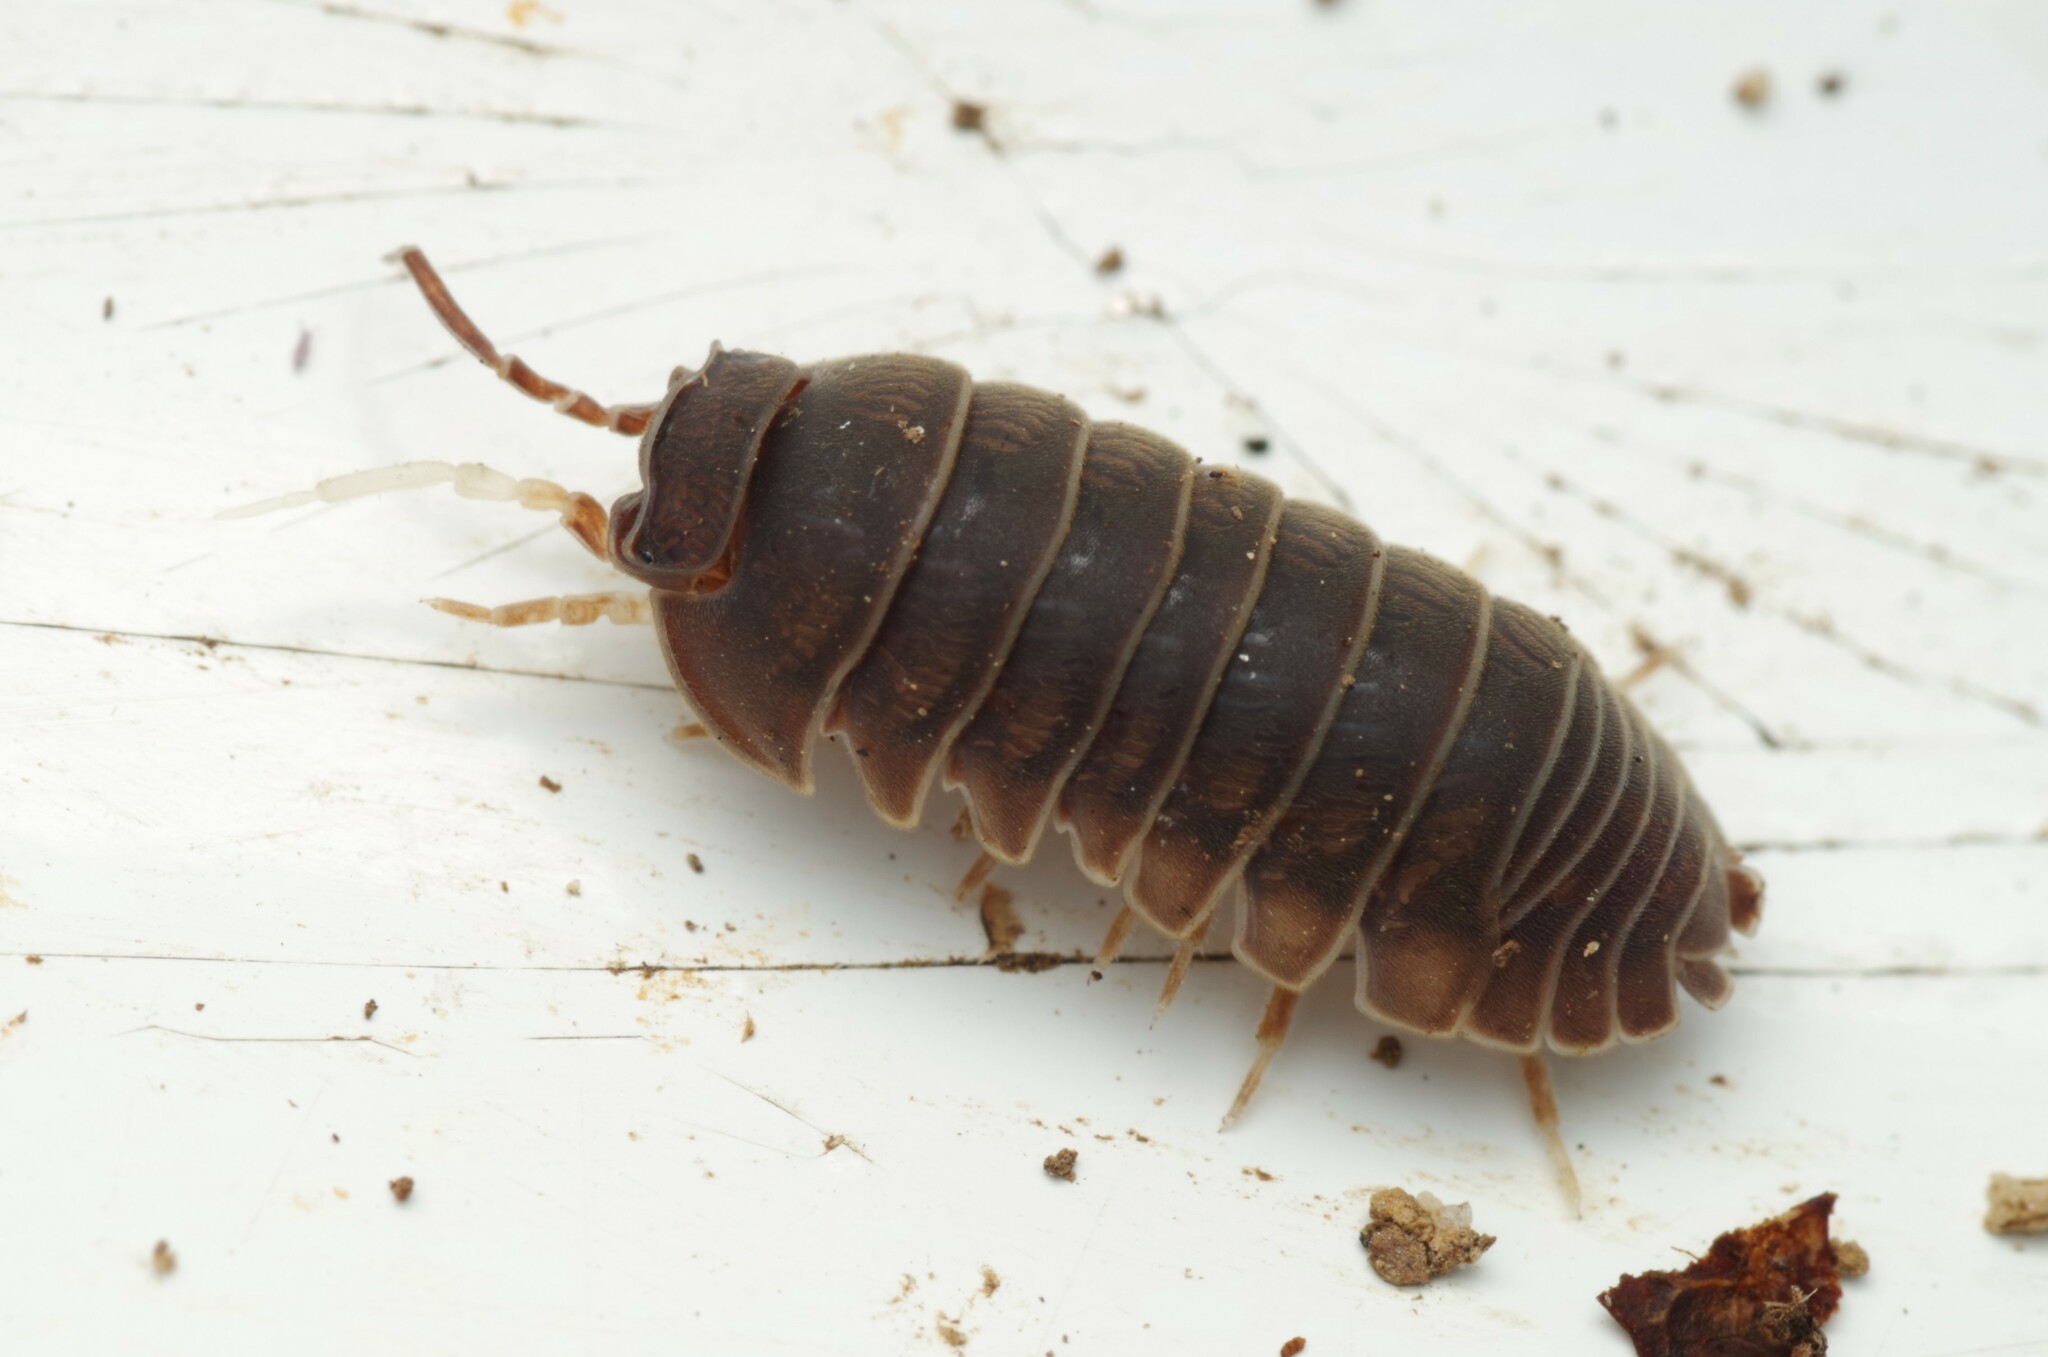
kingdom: Animalia
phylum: Arthropoda
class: Malacostraca
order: Isopoda
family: Armadillidiidae
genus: Eluma
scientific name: Eluma caelata
